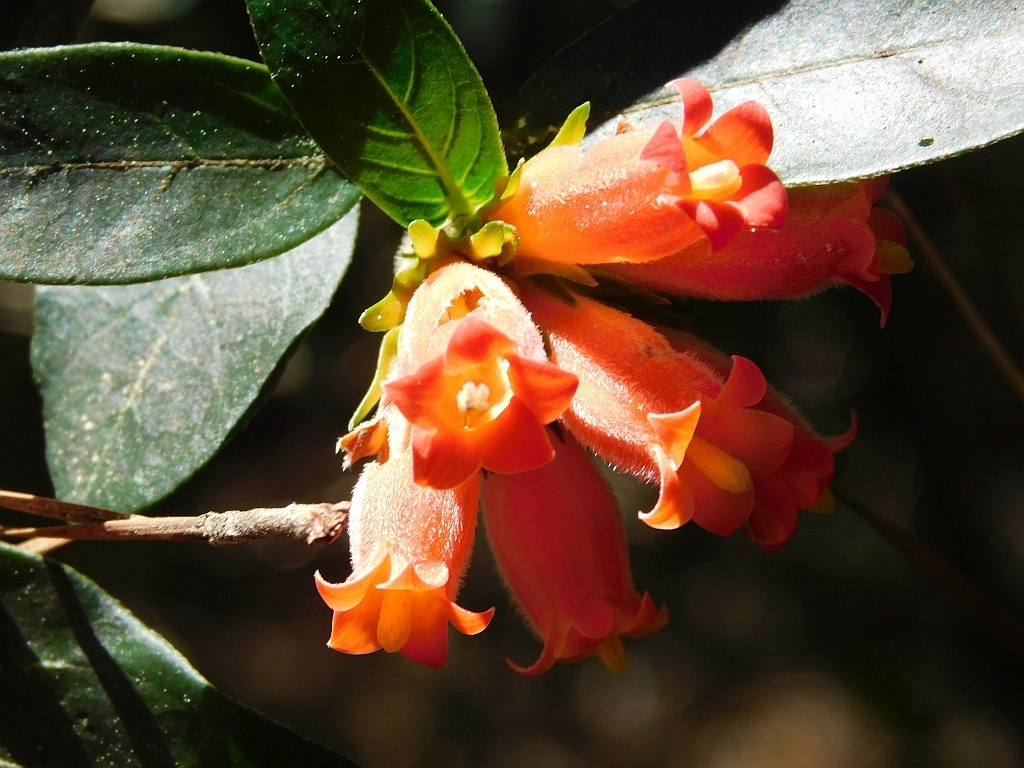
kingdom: Plantae
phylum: Tracheophyta
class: Magnoliopsida
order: Gentianales
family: Rubiaceae
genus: Burchellia
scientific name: Burchellia bubalina
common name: Wild pomegranate
